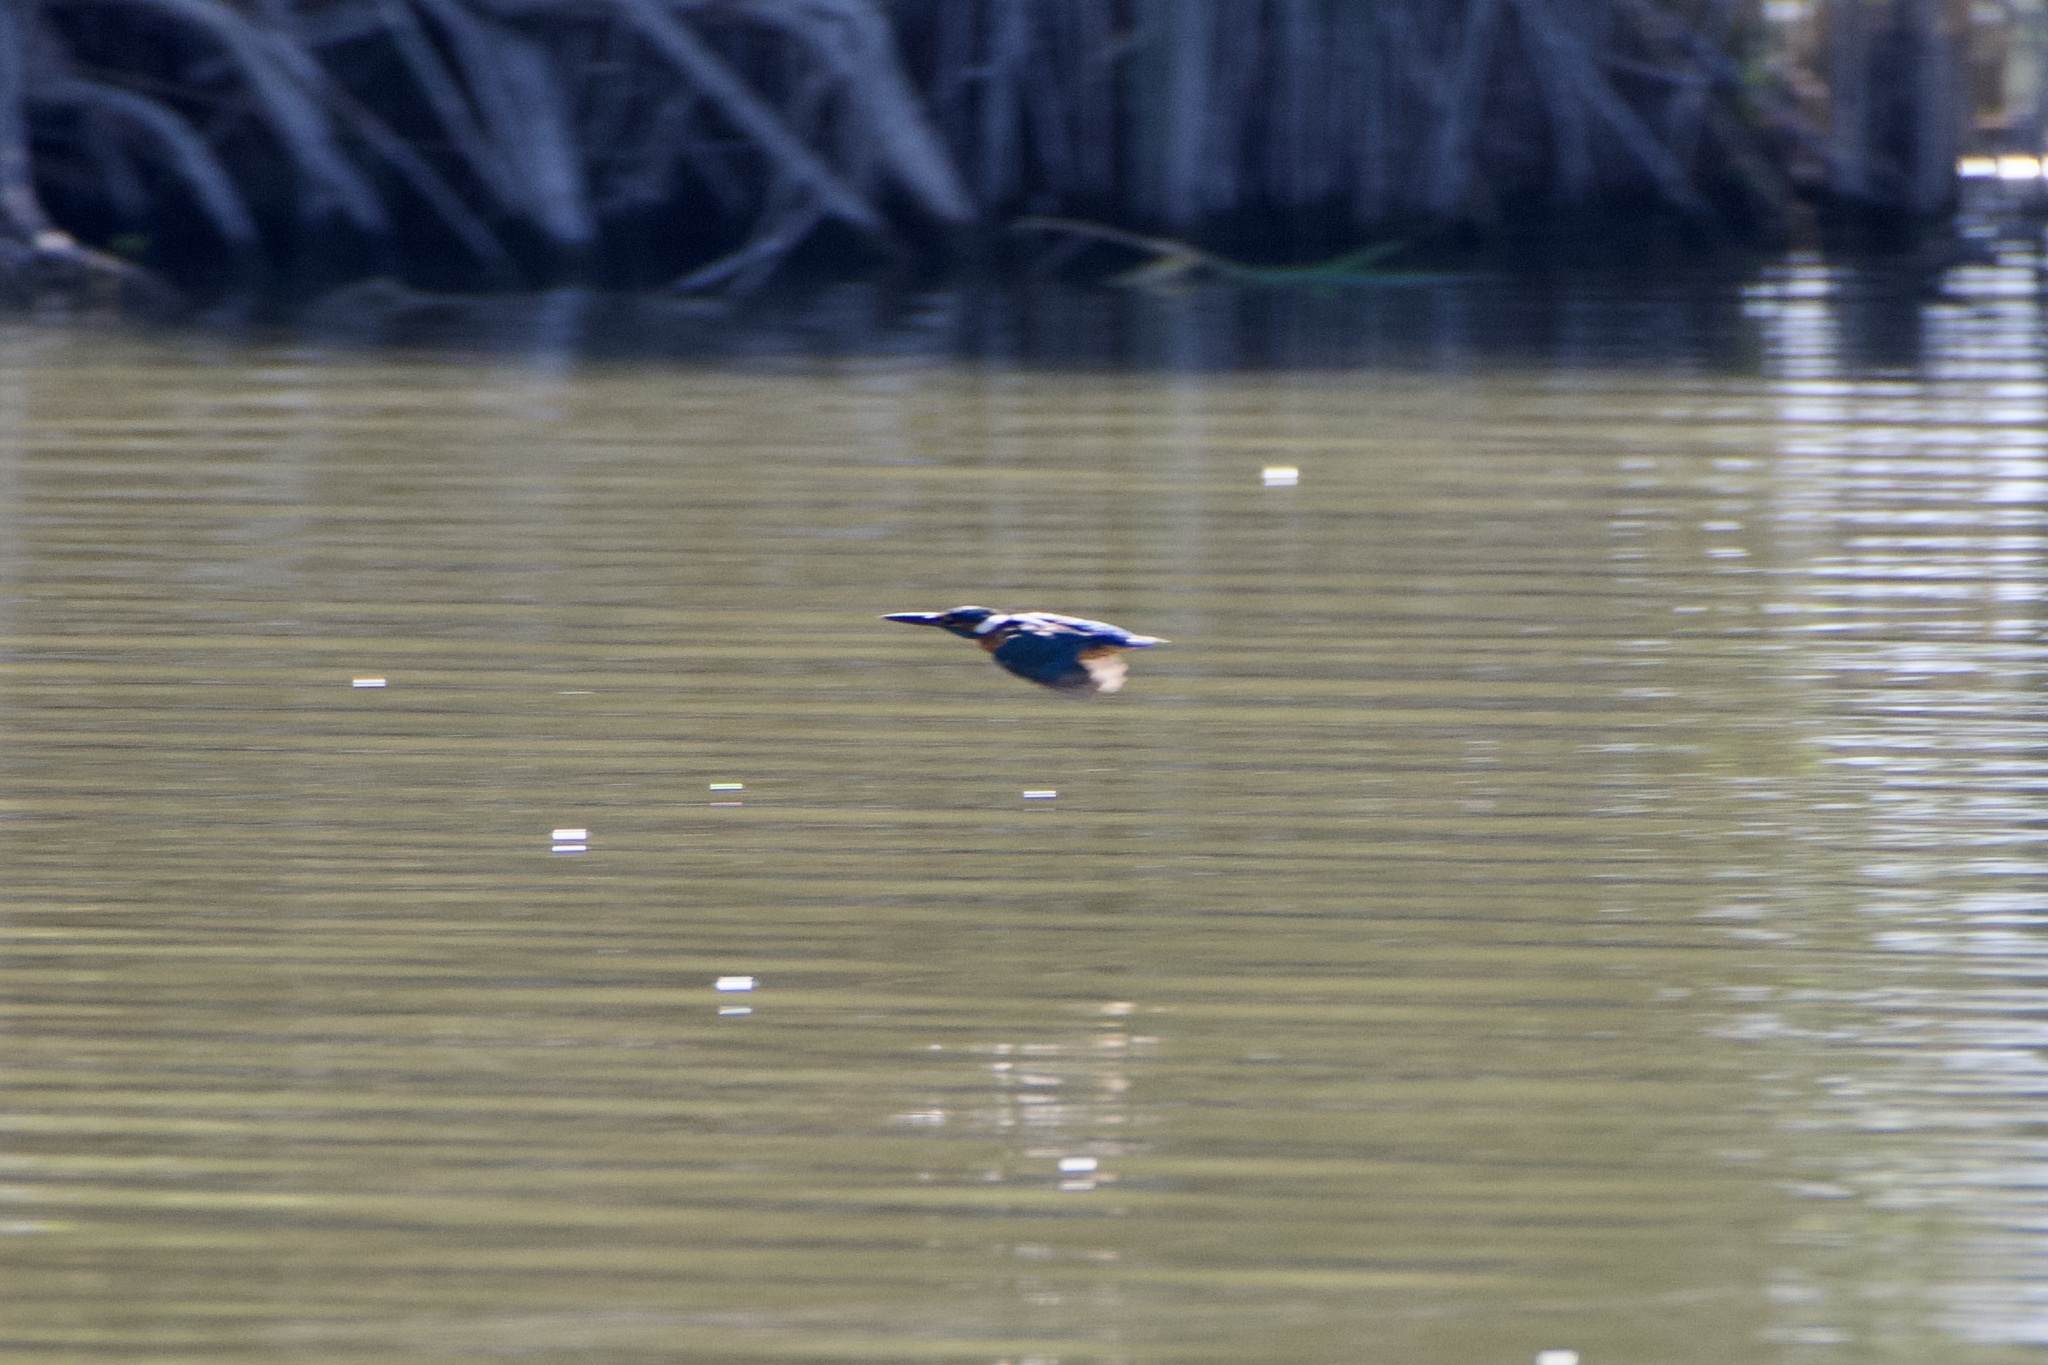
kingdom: Animalia
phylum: Chordata
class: Aves
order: Coraciiformes
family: Alcedinidae
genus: Alcedo
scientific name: Alcedo atthis
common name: Common kingfisher
